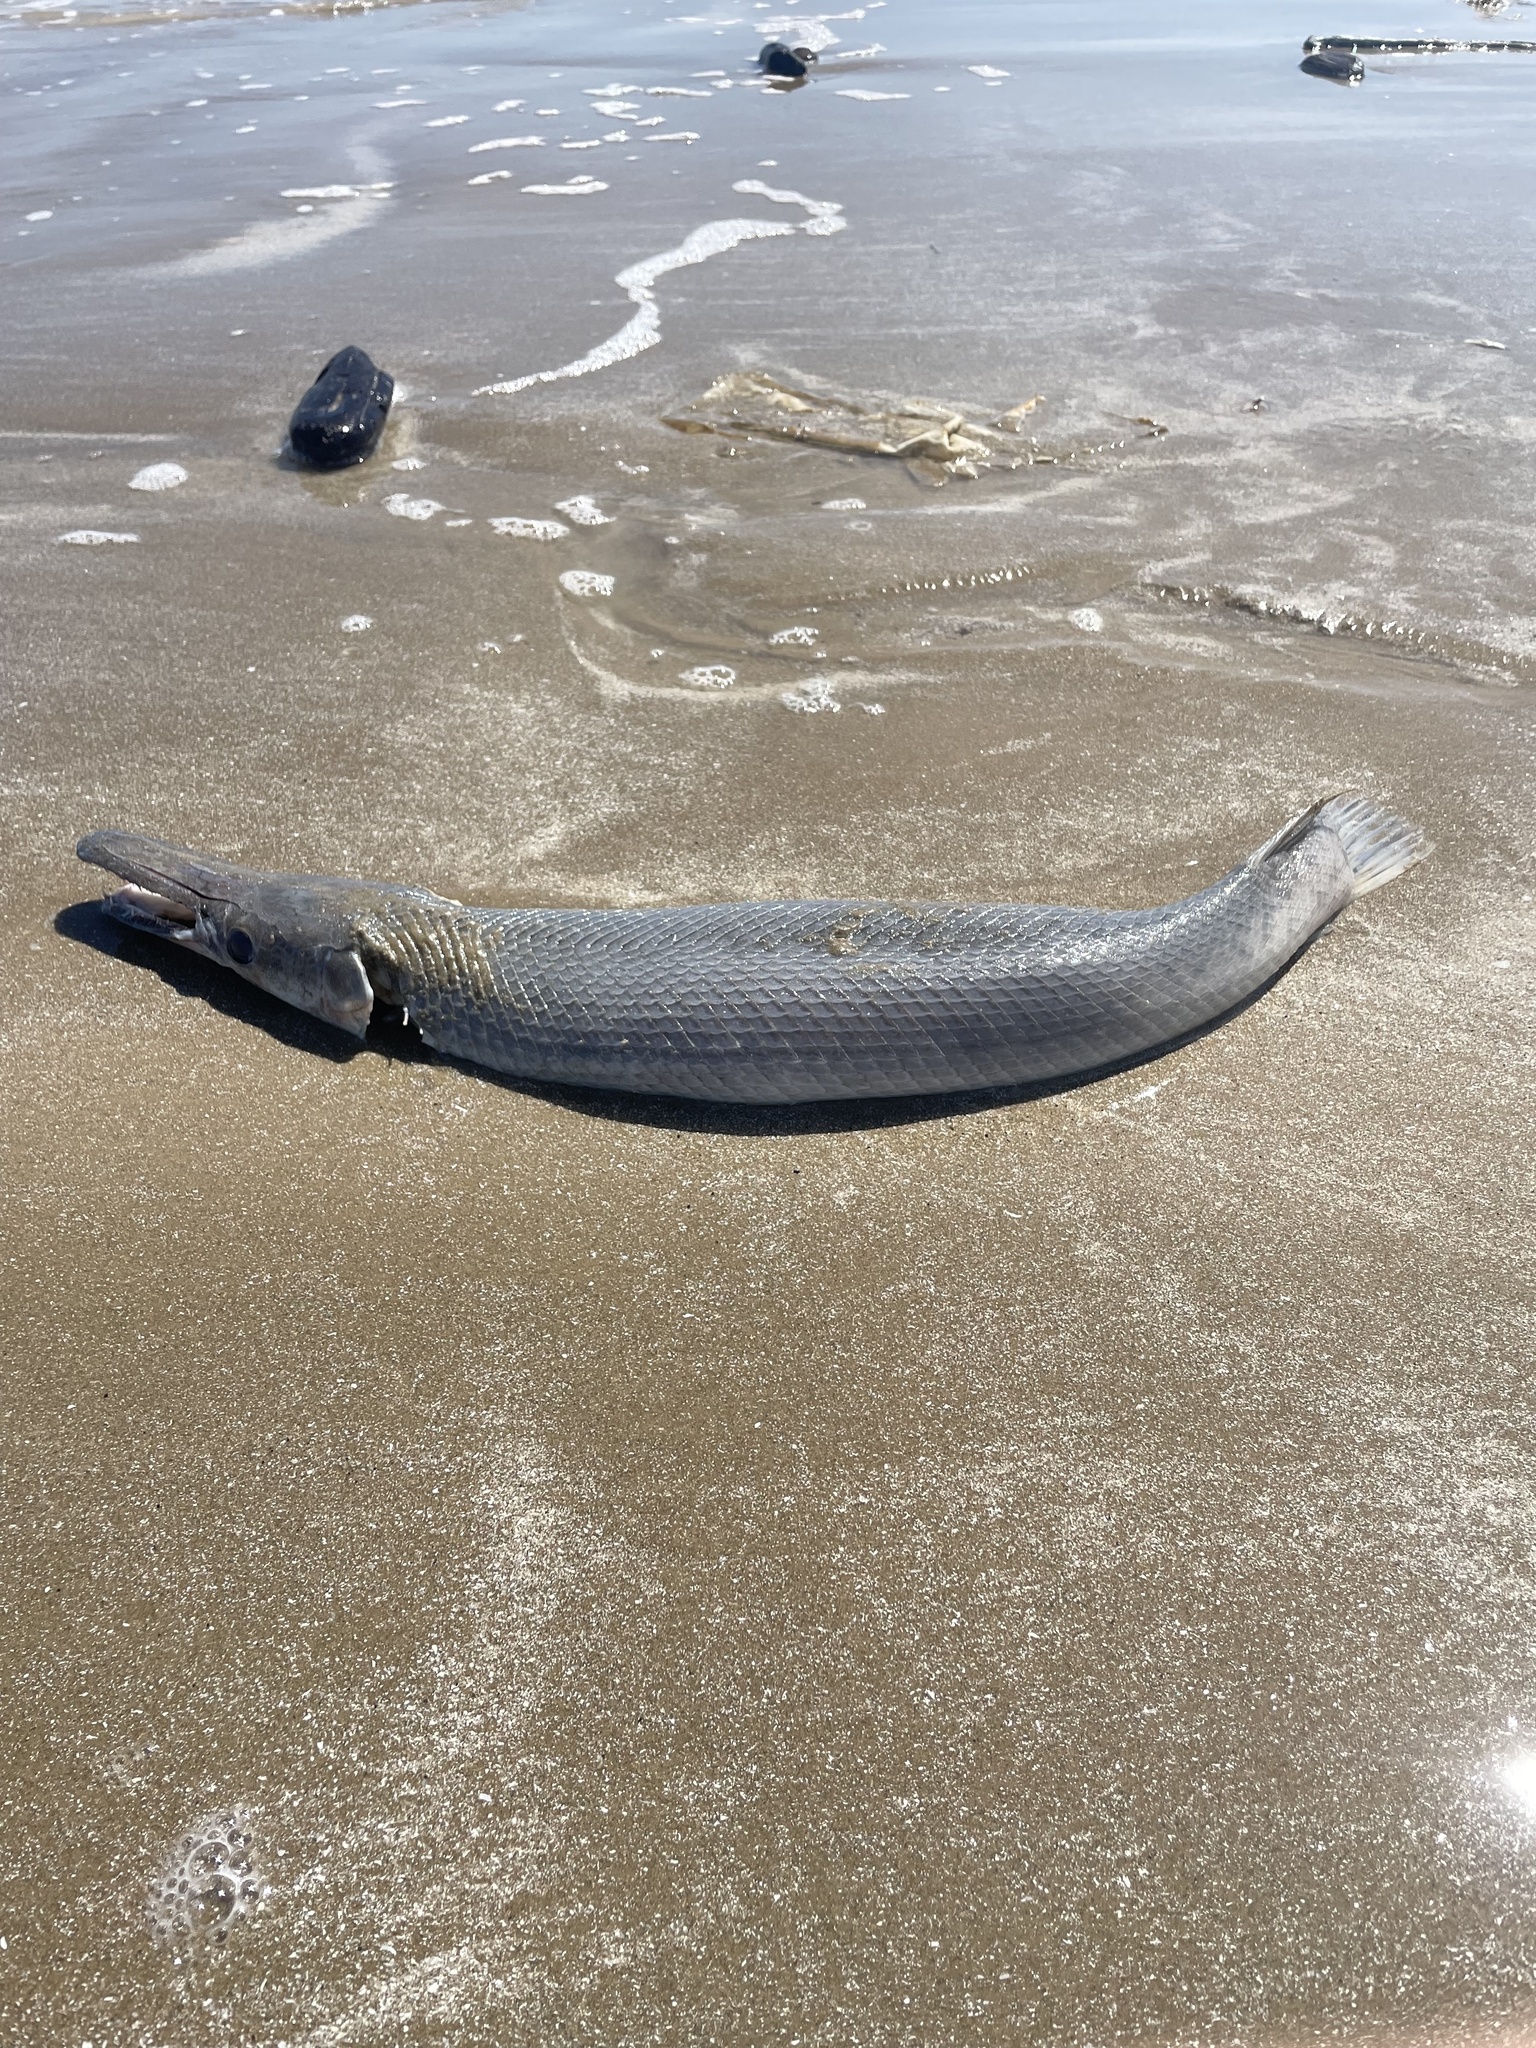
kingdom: Animalia
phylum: Chordata
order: Lepisosteiformes
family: Lepisosteidae
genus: Atractosteus
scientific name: Atractosteus spatula
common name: Alligator gar
